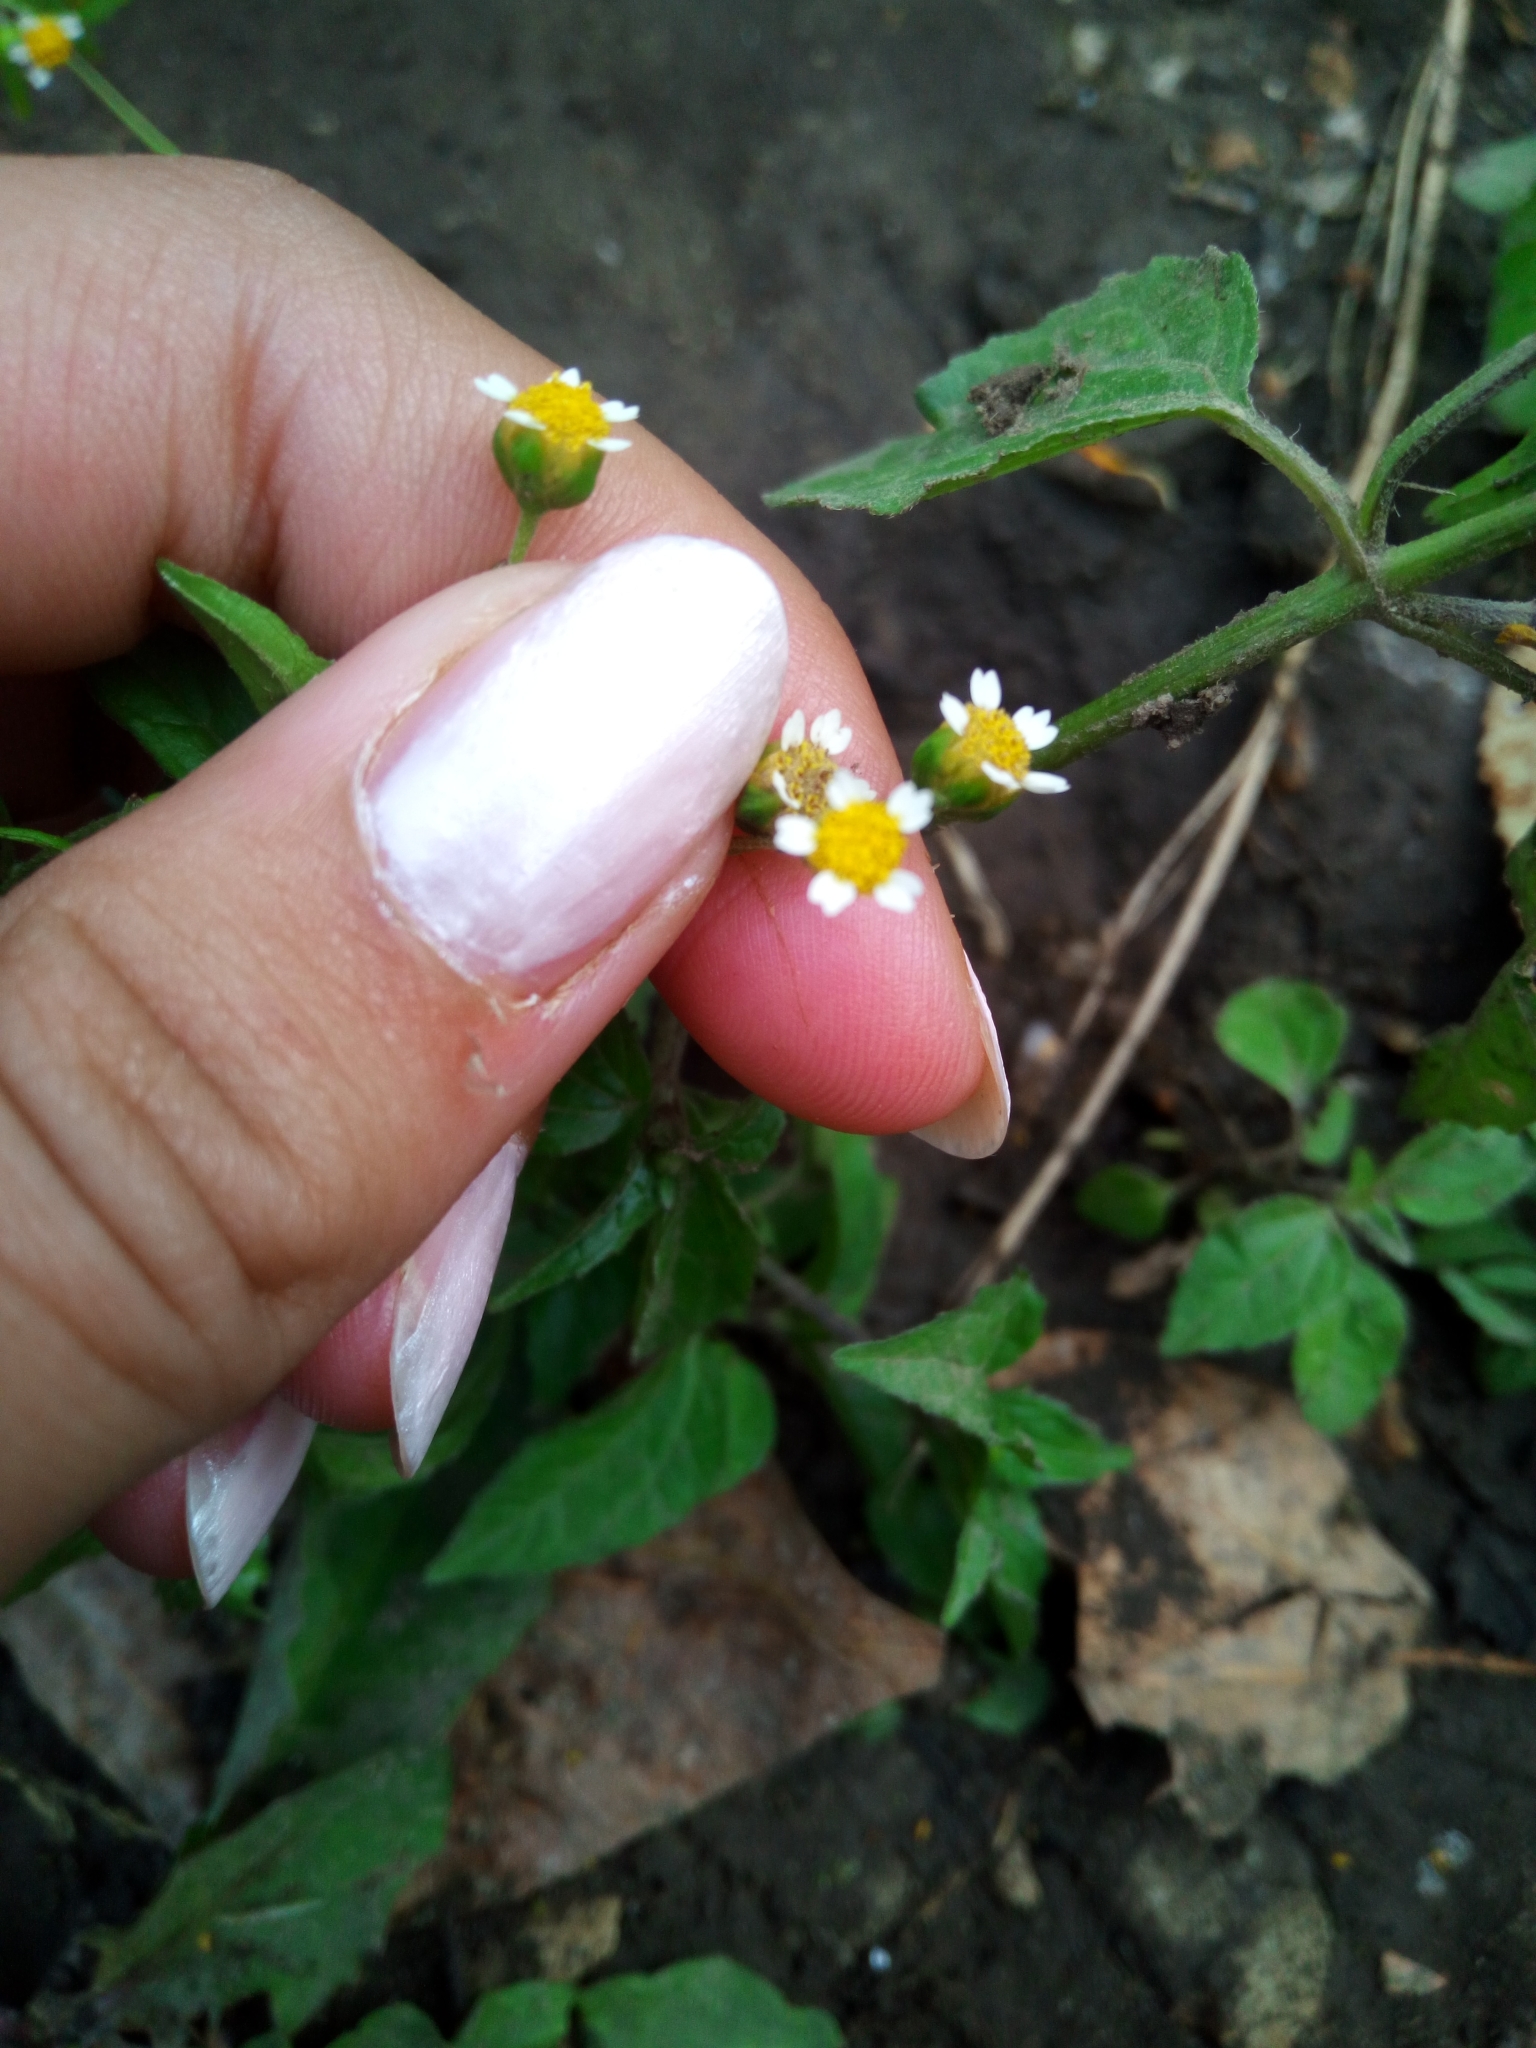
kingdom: Plantae
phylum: Tracheophyta
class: Magnoliopsida
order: Asterales
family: Asteraceae
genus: Galinsoga
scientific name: Galinsoga parviflora
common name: Gallant soldier
